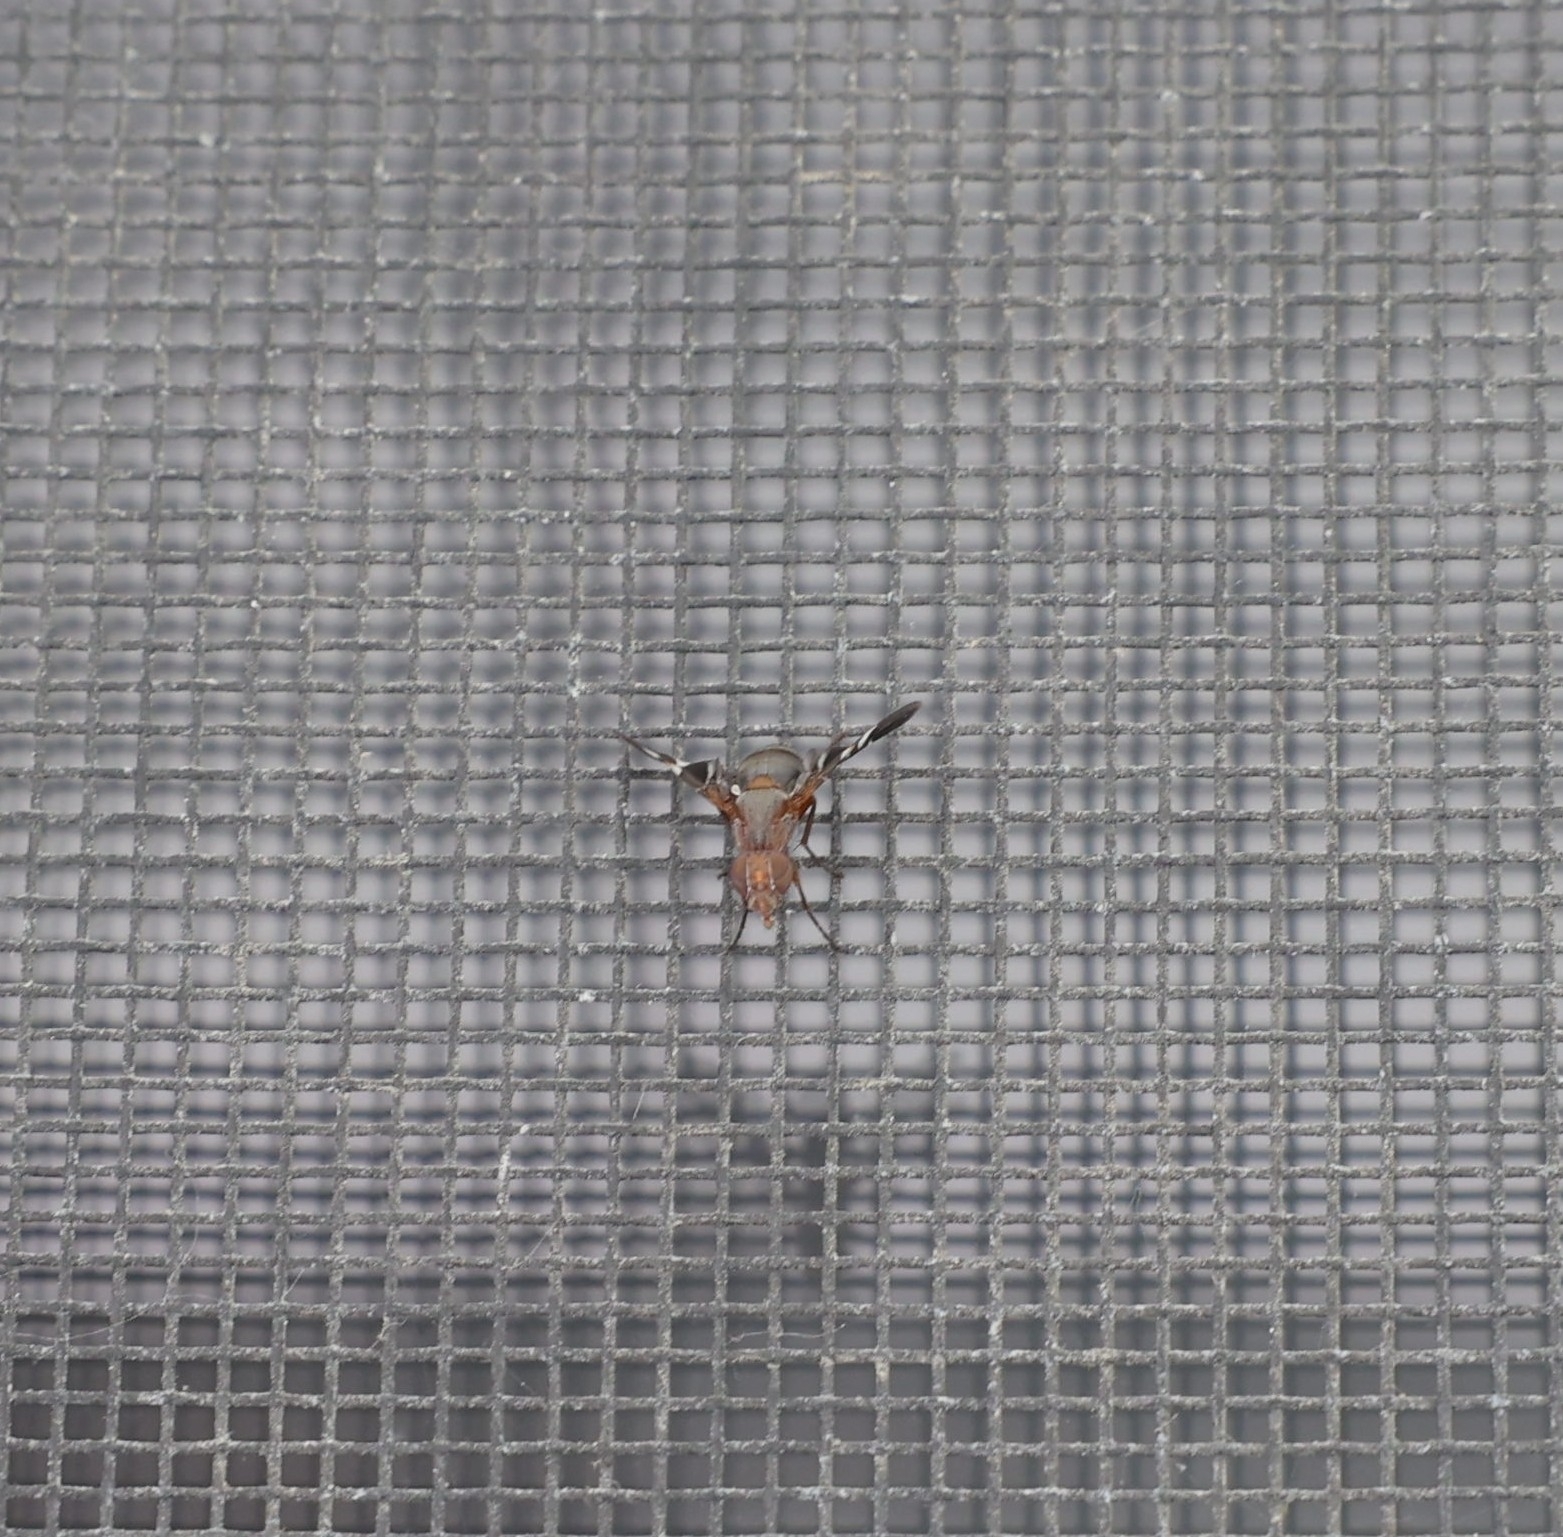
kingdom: Animalia
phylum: Arthropoda
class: Insecta
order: Diptera
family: Ulidiidae
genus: Delphinia
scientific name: Delphinia picta
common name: Common picture-winged fly
